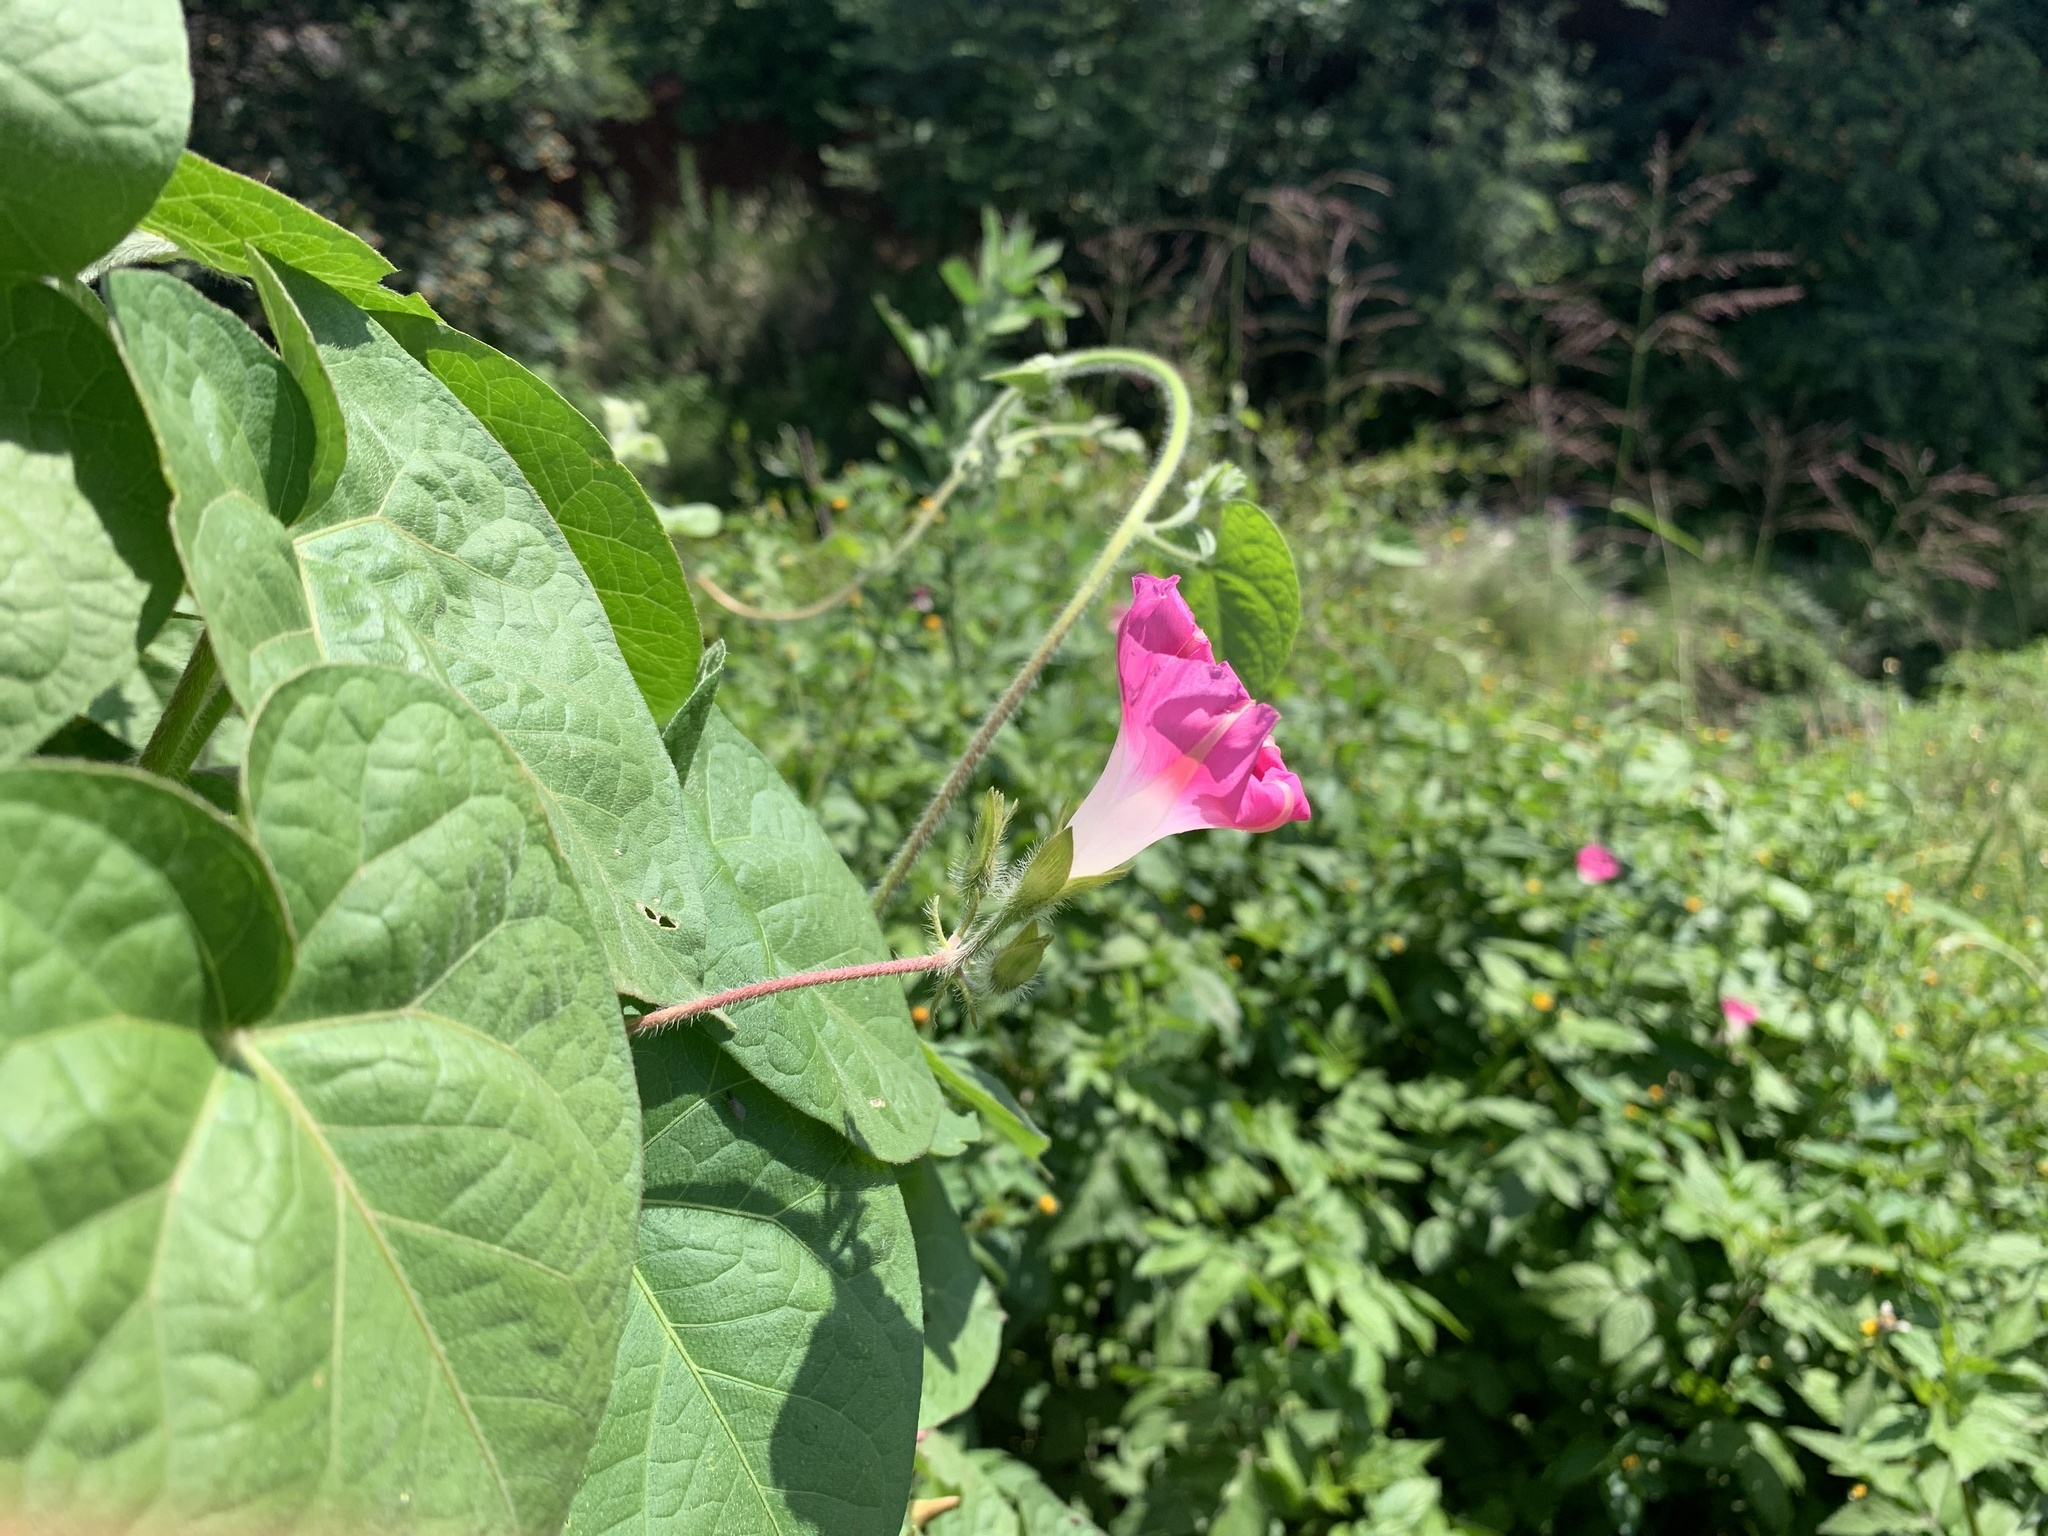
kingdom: Plantae
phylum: Tracheophyta
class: Magnoliopsida
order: Solanales
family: Convolvulaceae
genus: Ipomoea
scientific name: Ipomoea purpurea
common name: Common morning-glory
